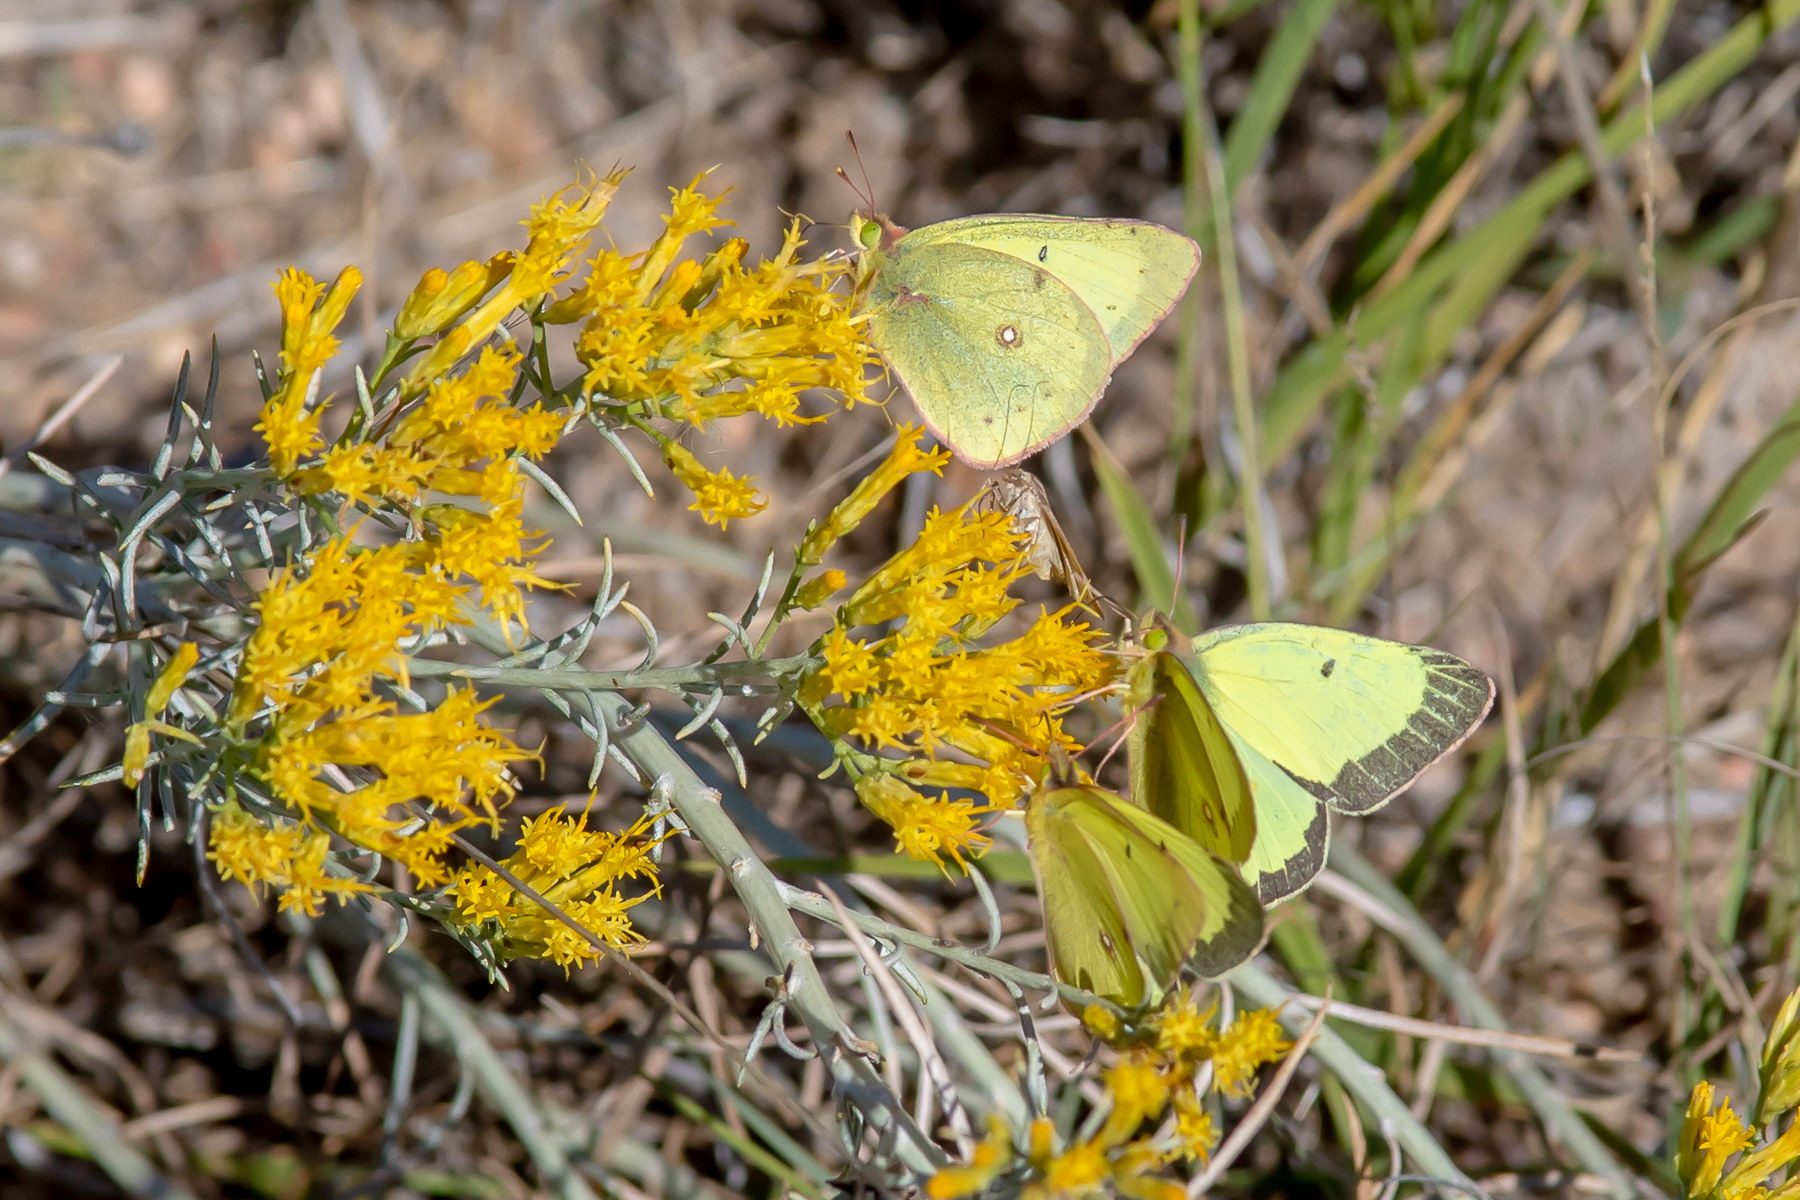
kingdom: Animalia
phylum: Arthropoda
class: Insecta
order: Lepidoptera
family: Pieridae
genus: Colias
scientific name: Colias philodice
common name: Clouded sulphur
